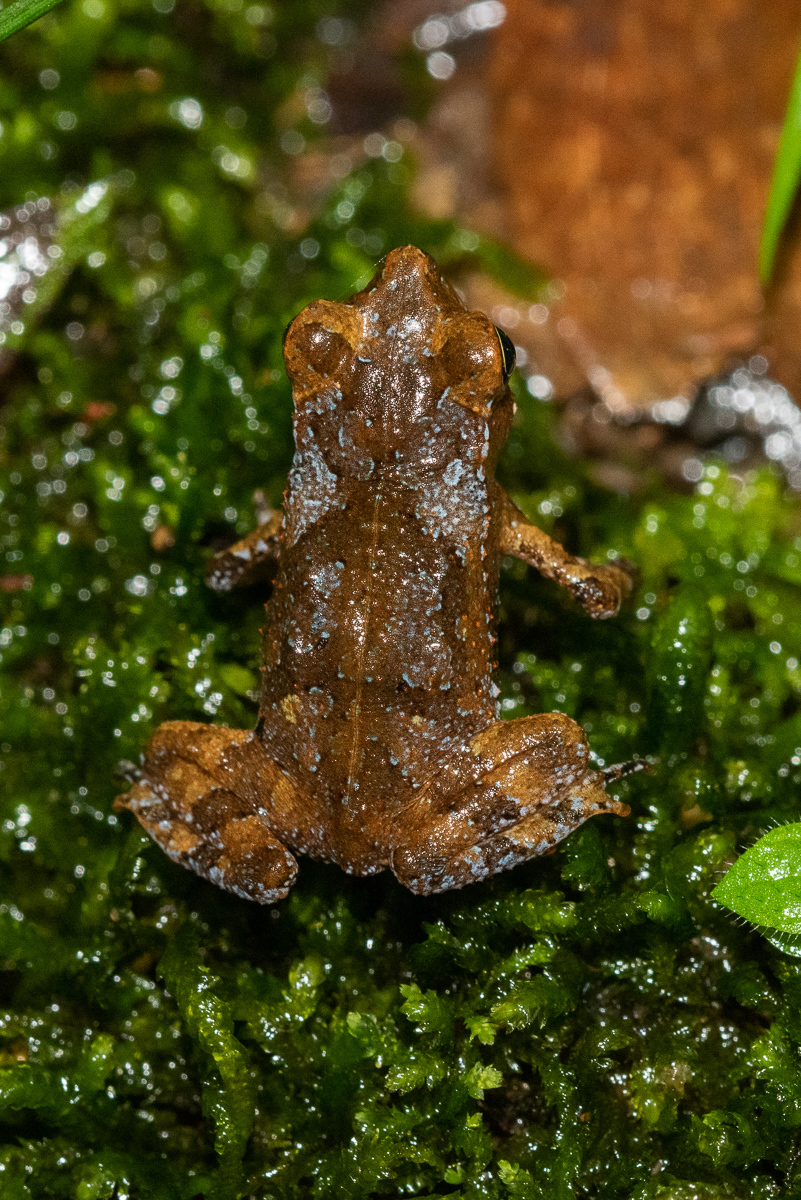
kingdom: Animalia
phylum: Chordata
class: Amphibia
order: Anura
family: Bufonidae
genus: Rhinella
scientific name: Rhinella margaritifera
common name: Mitred toad
